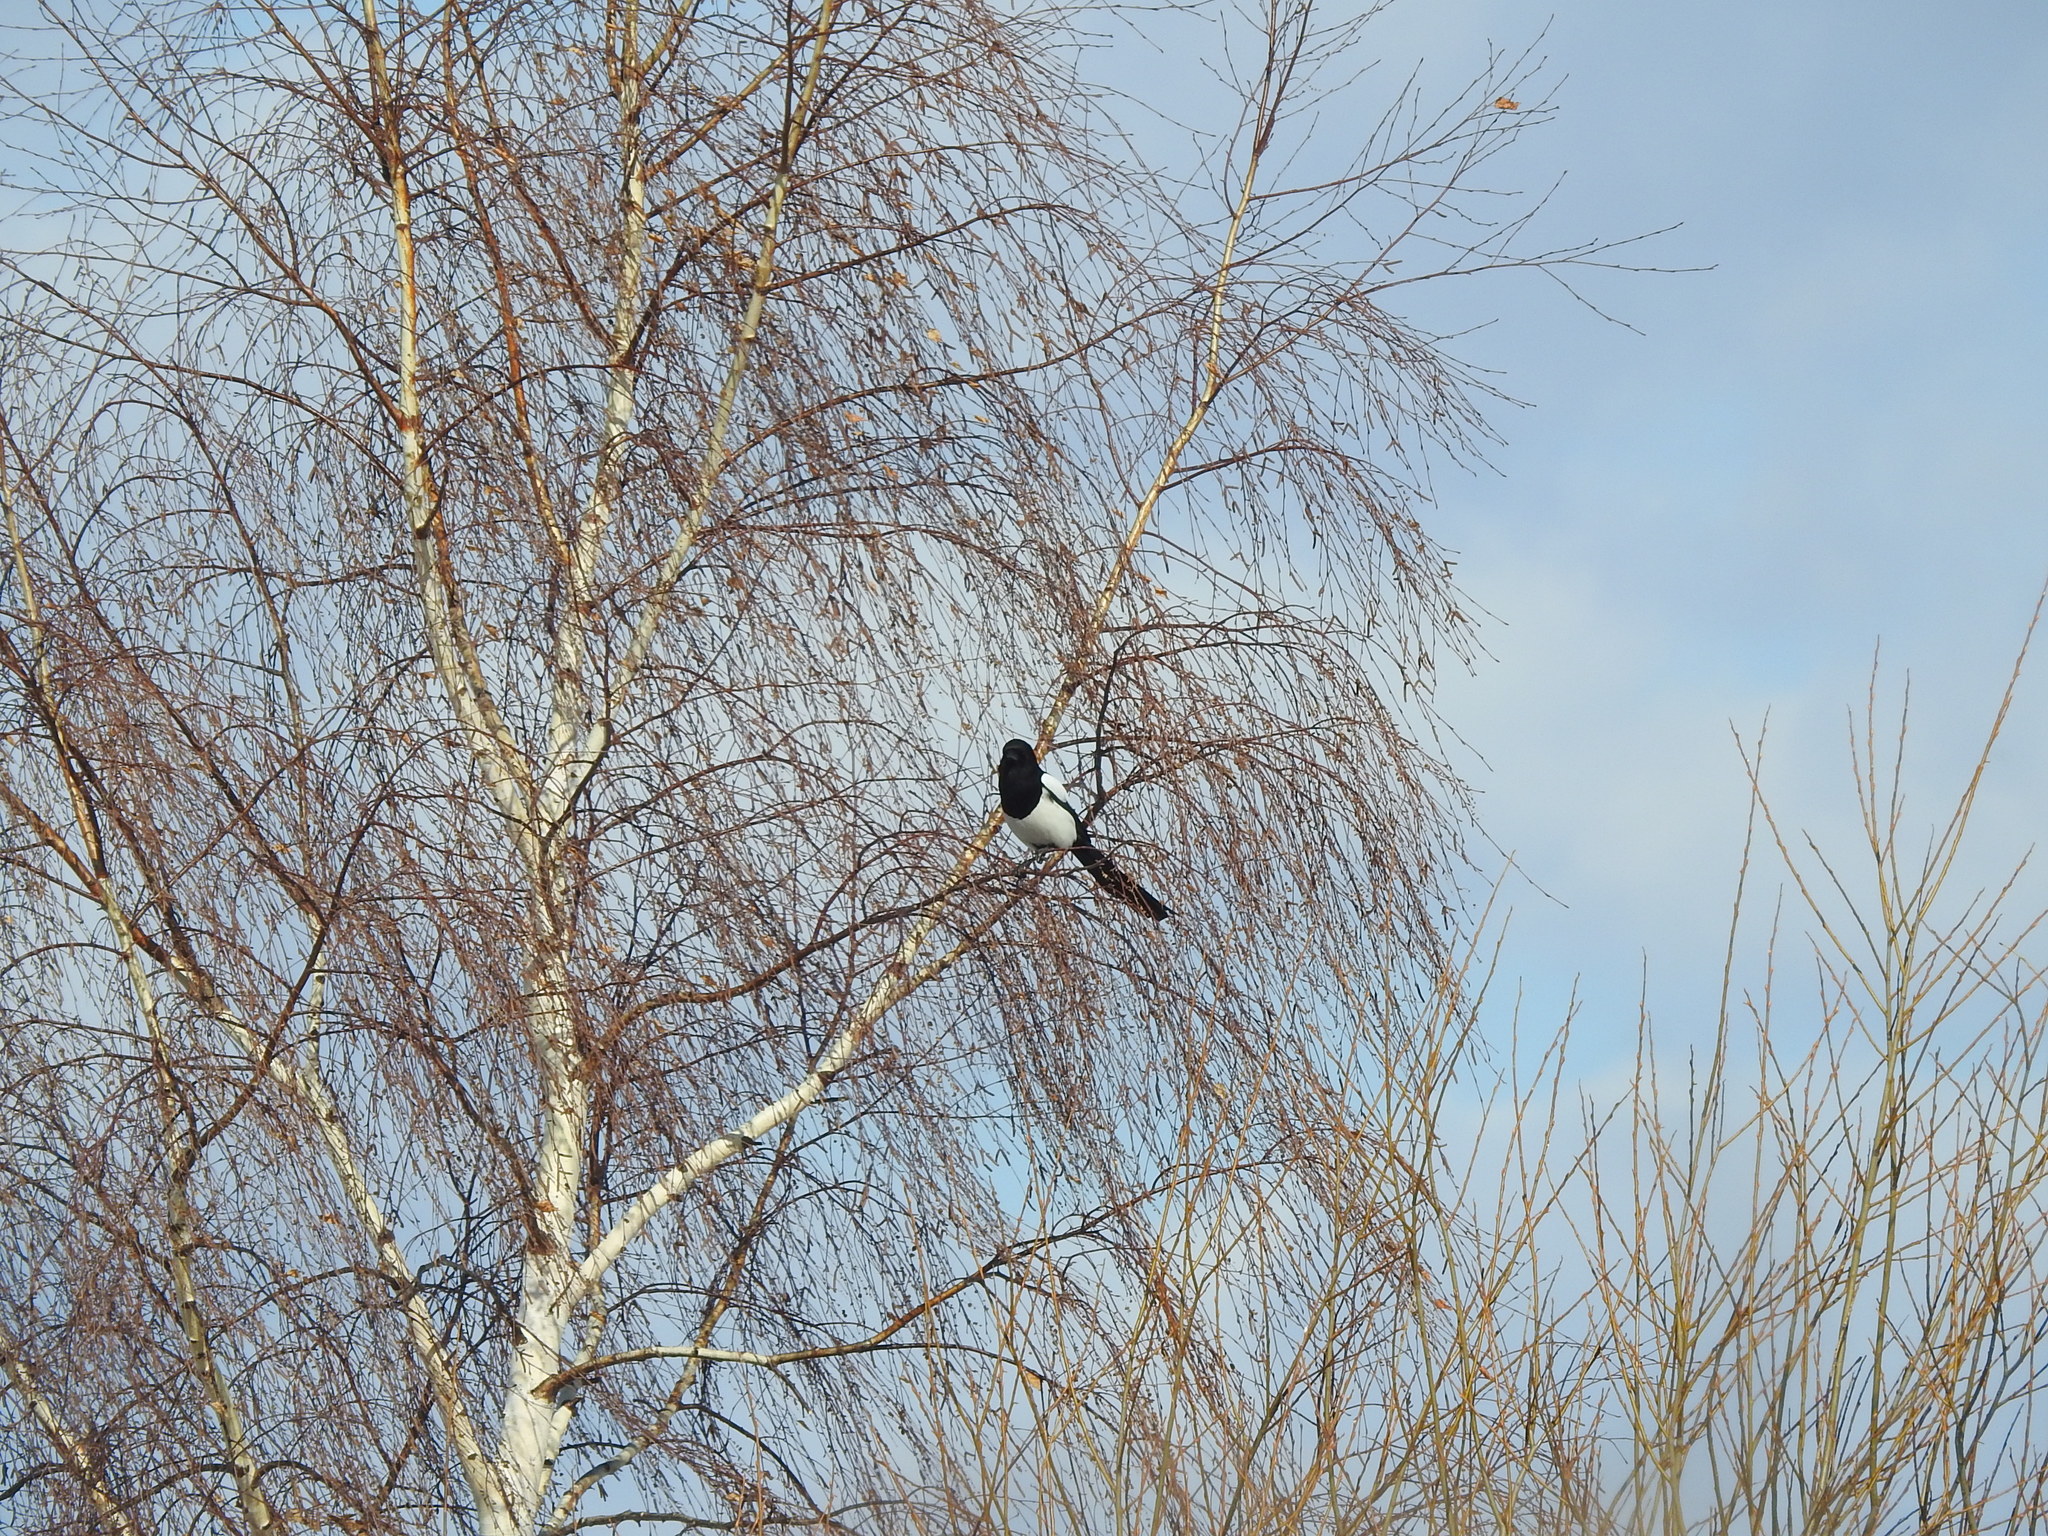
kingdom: Animalia
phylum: Chordata
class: Aves
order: Passeriformes
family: Corvidae
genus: Pica
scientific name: Pica pica
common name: Eurasian magpie
